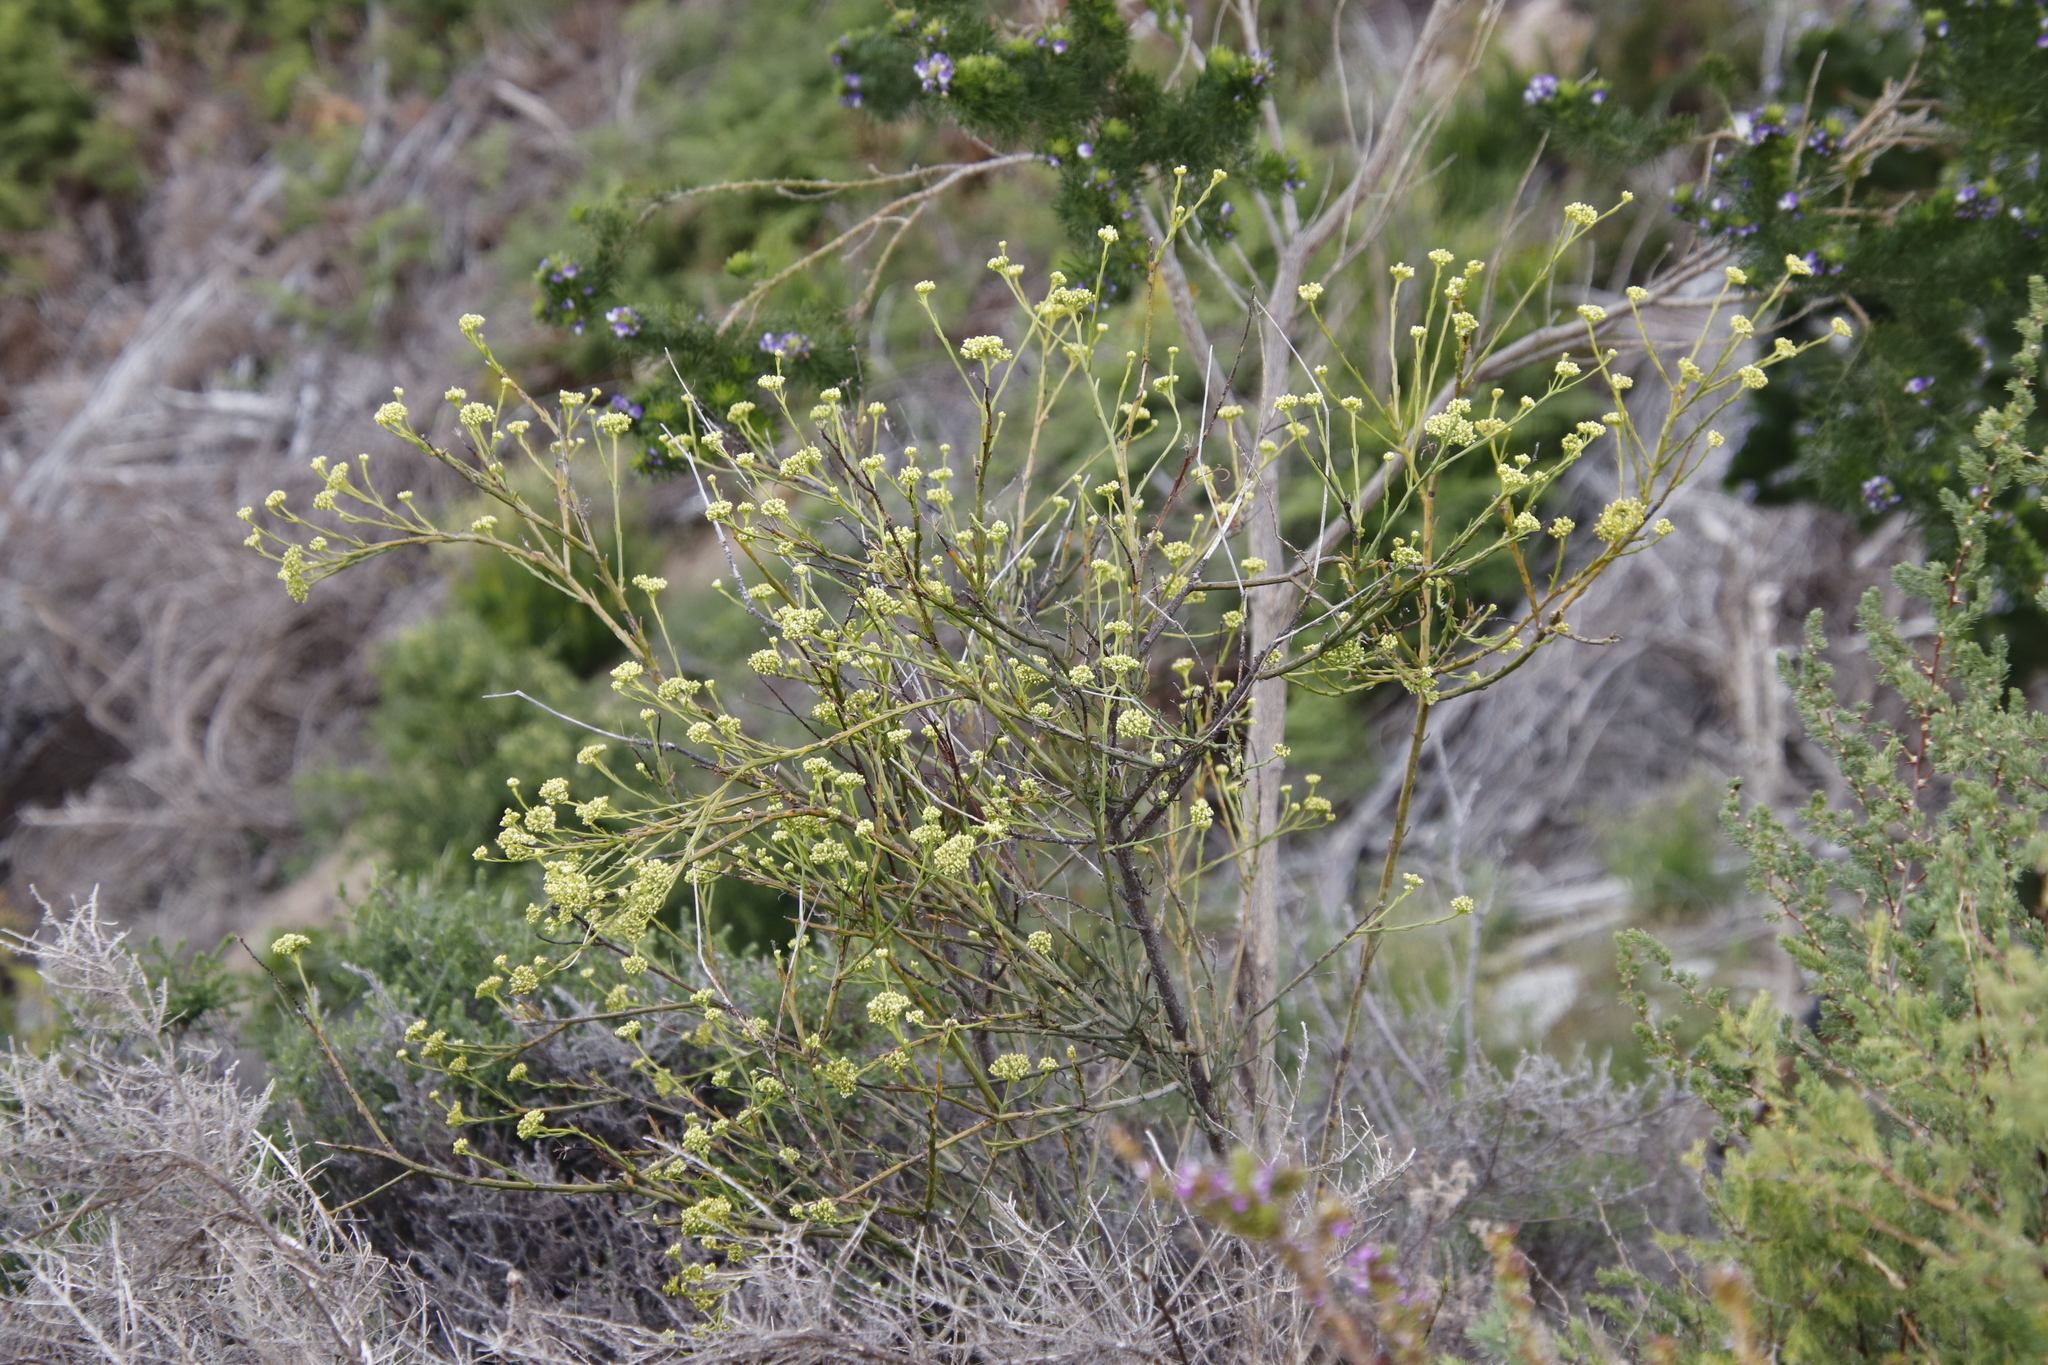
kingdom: Plantae
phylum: Tracheophyta
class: Magnoliopsida
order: Santalales
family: Thesiaceae
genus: Thesium
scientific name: Thesium strictum
